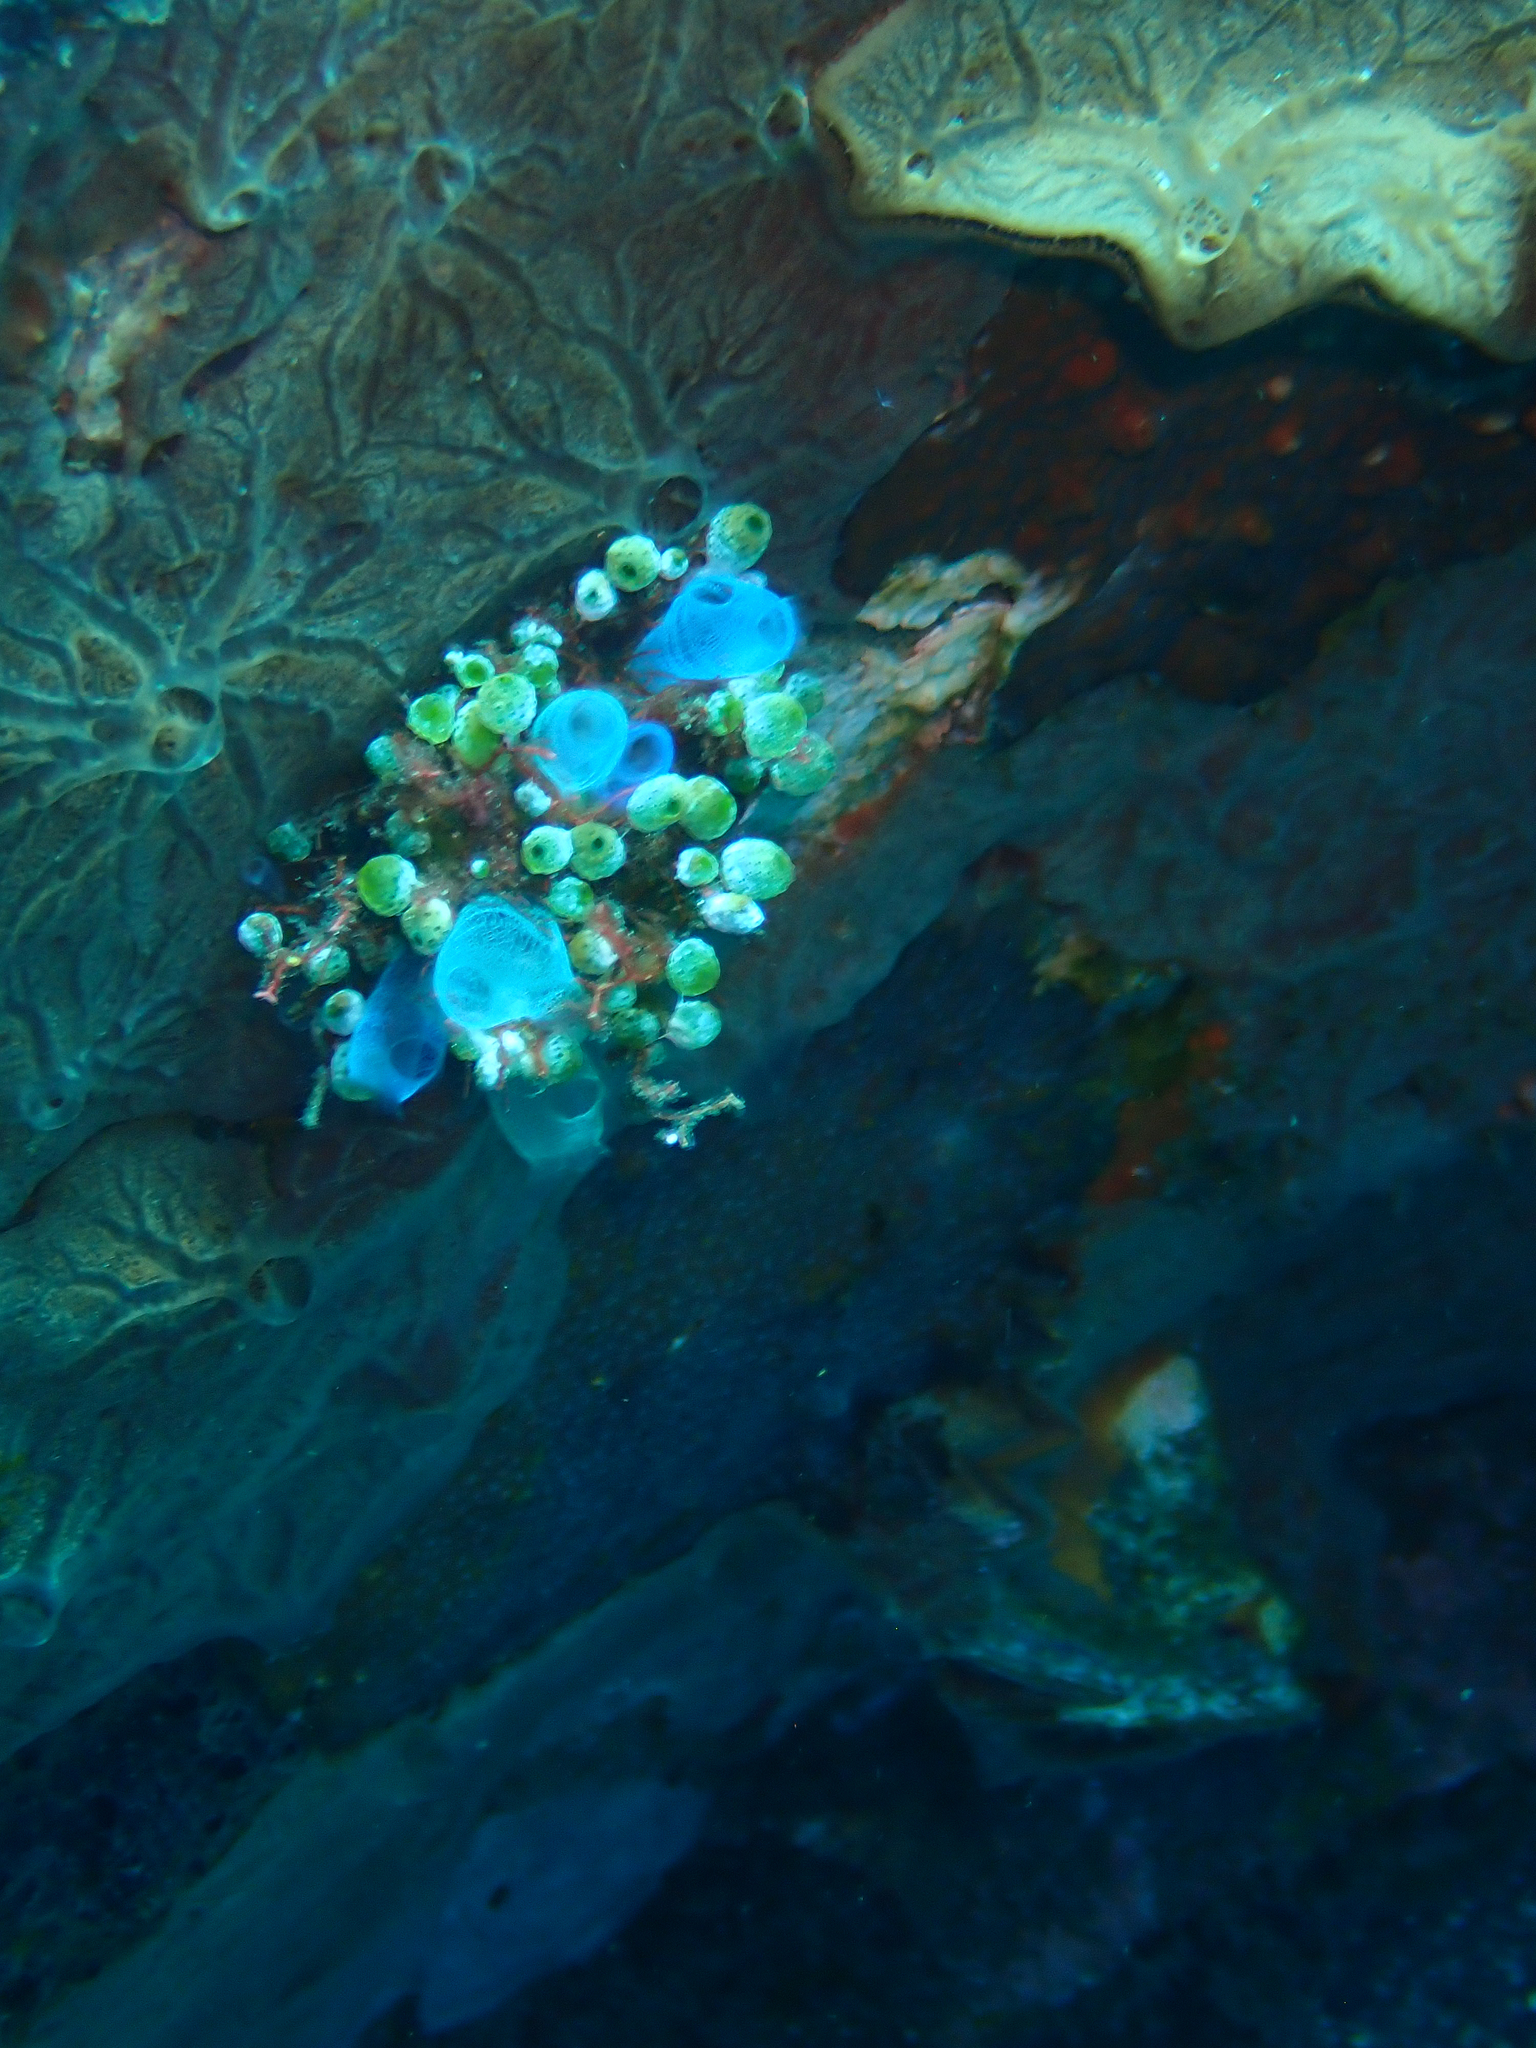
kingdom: Animalia
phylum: Chordata
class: Ascidiacea
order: Aplousobranchia
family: Diazonidae
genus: Rhopalaea
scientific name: Rhopalaea
